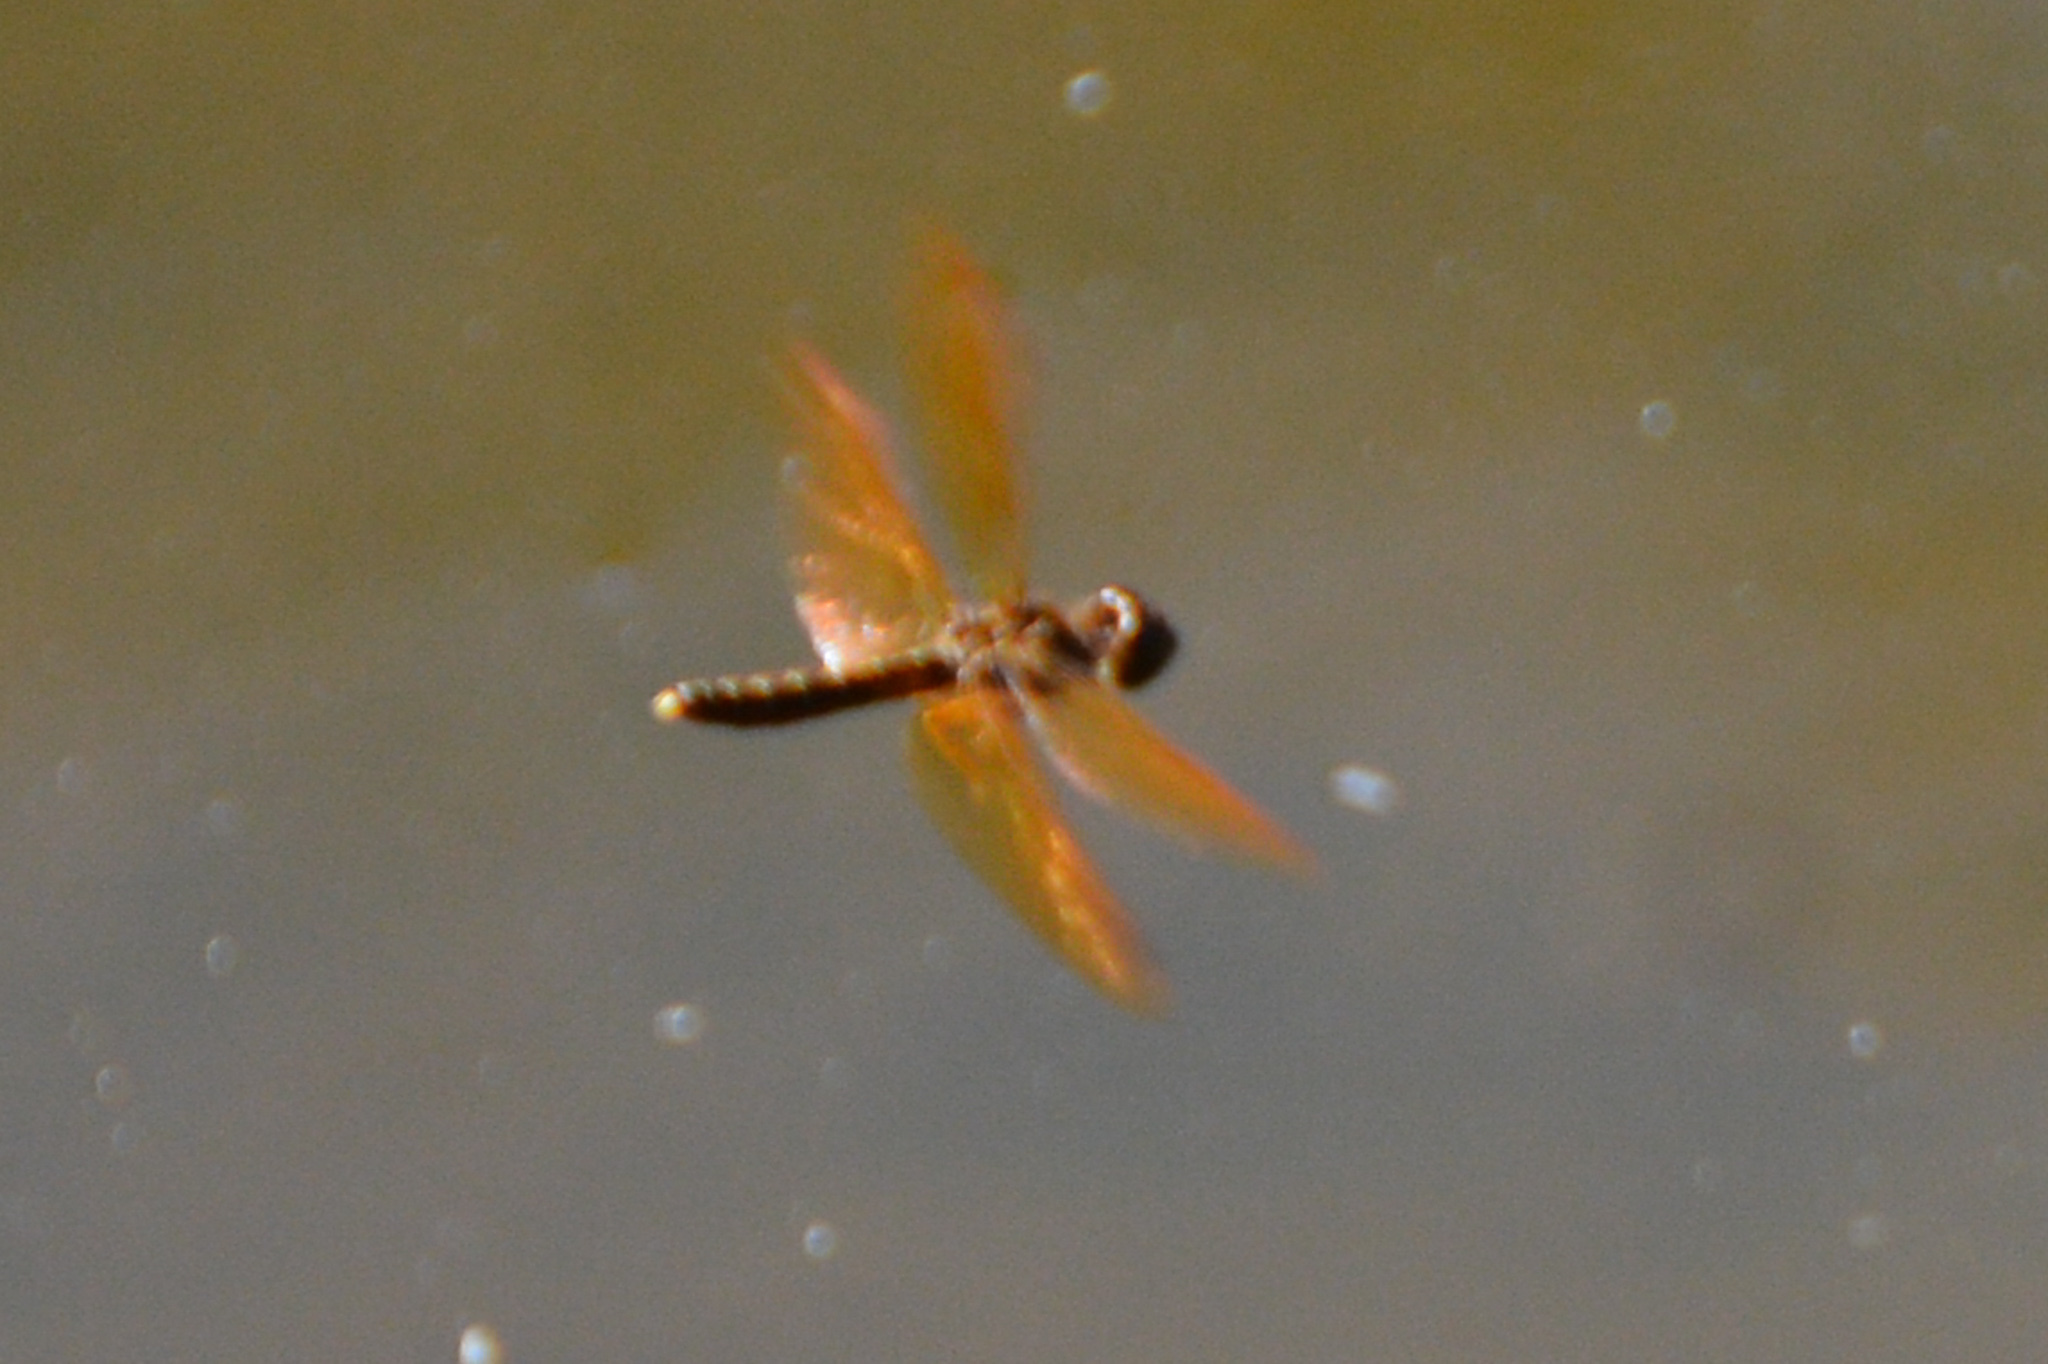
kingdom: Animalia
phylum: Arthropoda
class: Insecta
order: Odonata
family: Libellulidae
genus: Perithemis
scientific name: Perithemis tenera
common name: Eastern amberwing
